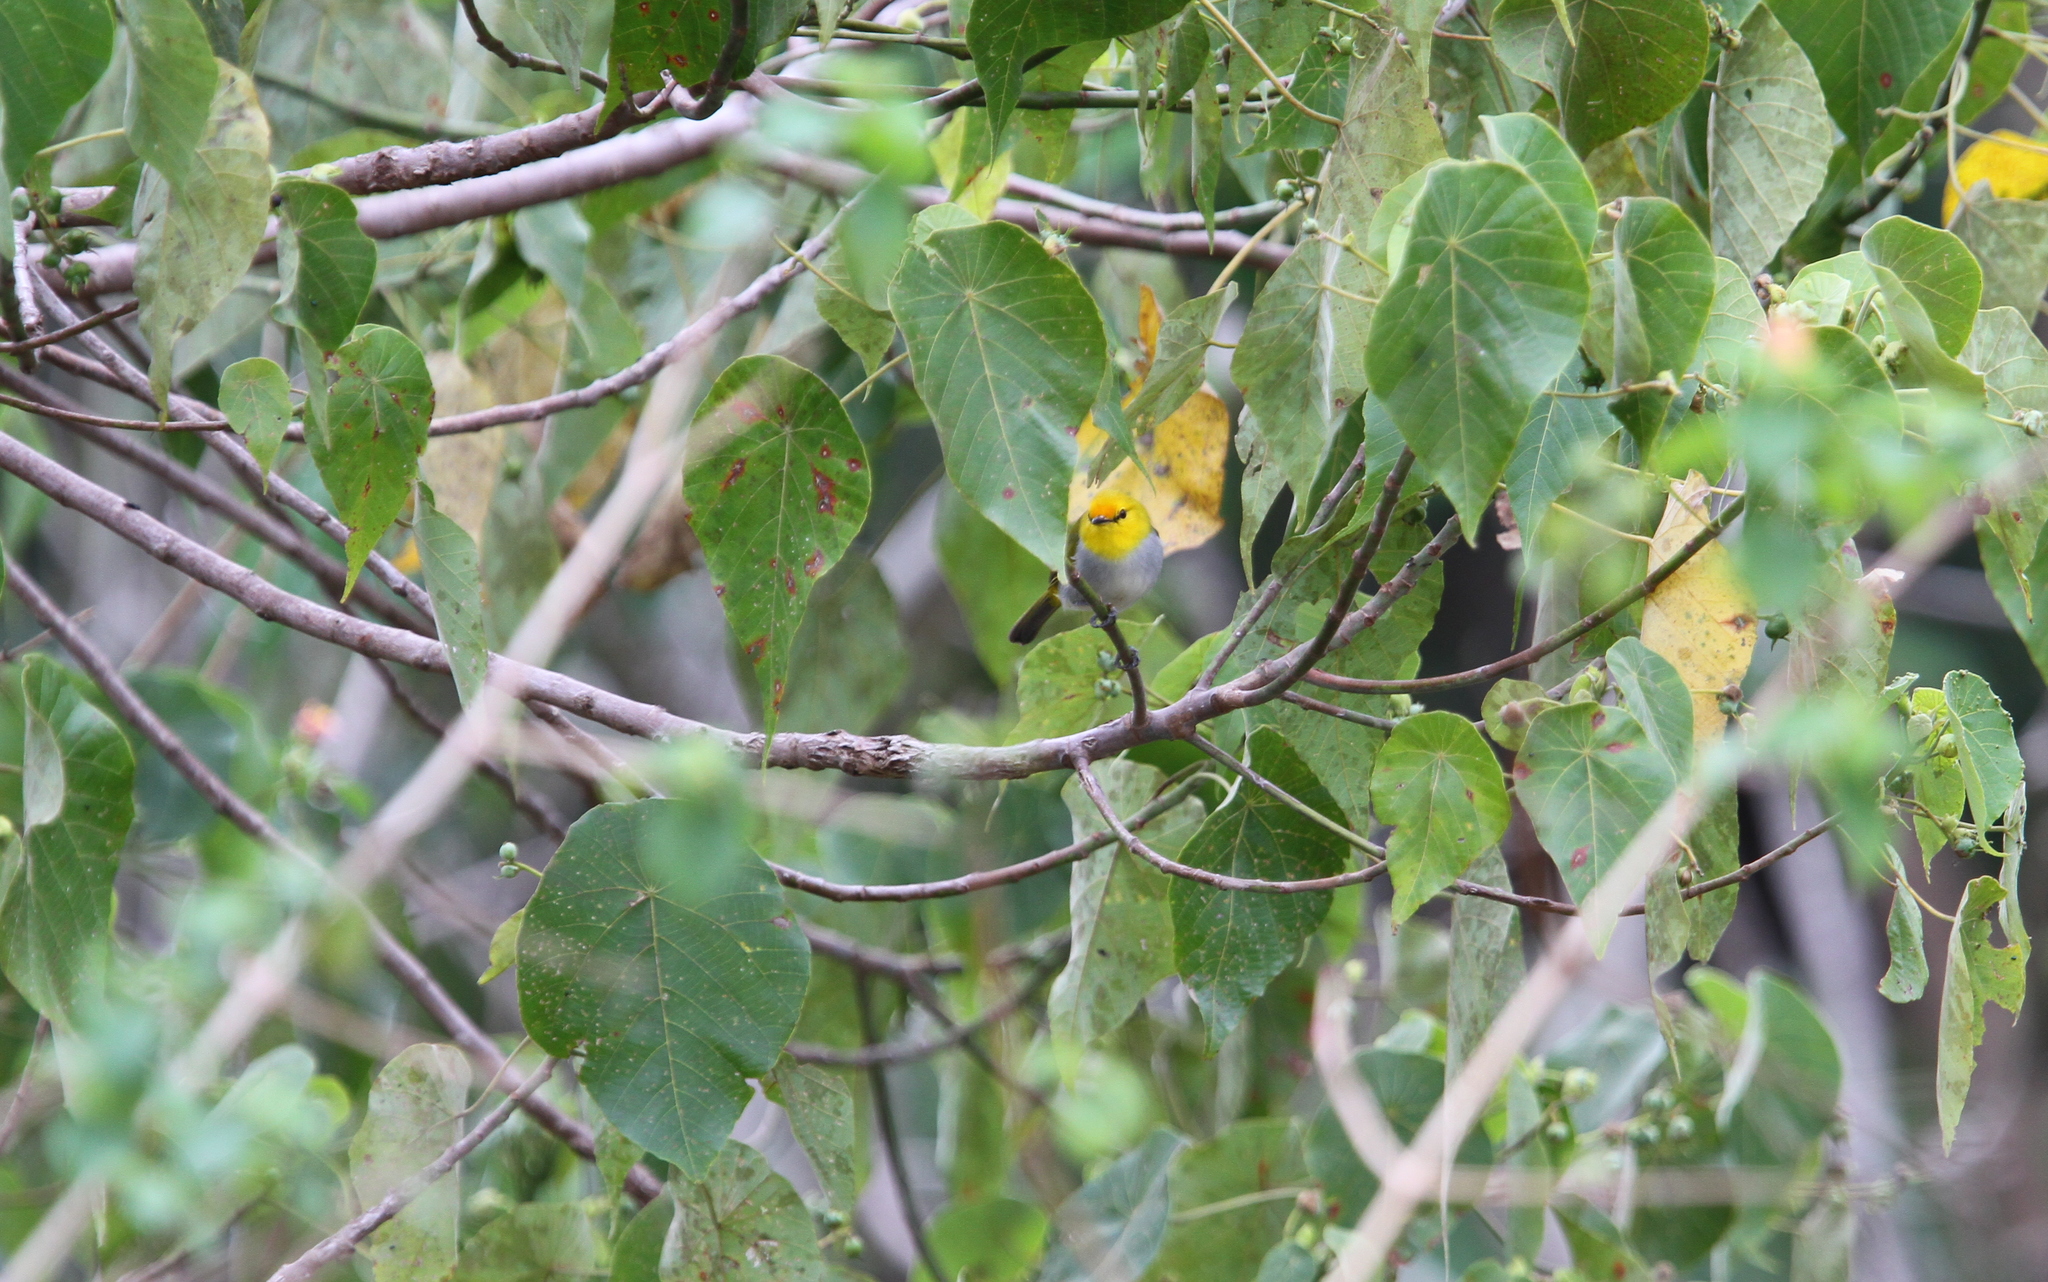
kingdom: Animalia
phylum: Chordata
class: Aves
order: Passeriformes
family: Zosteropidae
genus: Zosterops
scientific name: Zosterops wallacei
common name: Yellow-ringed white-eye
